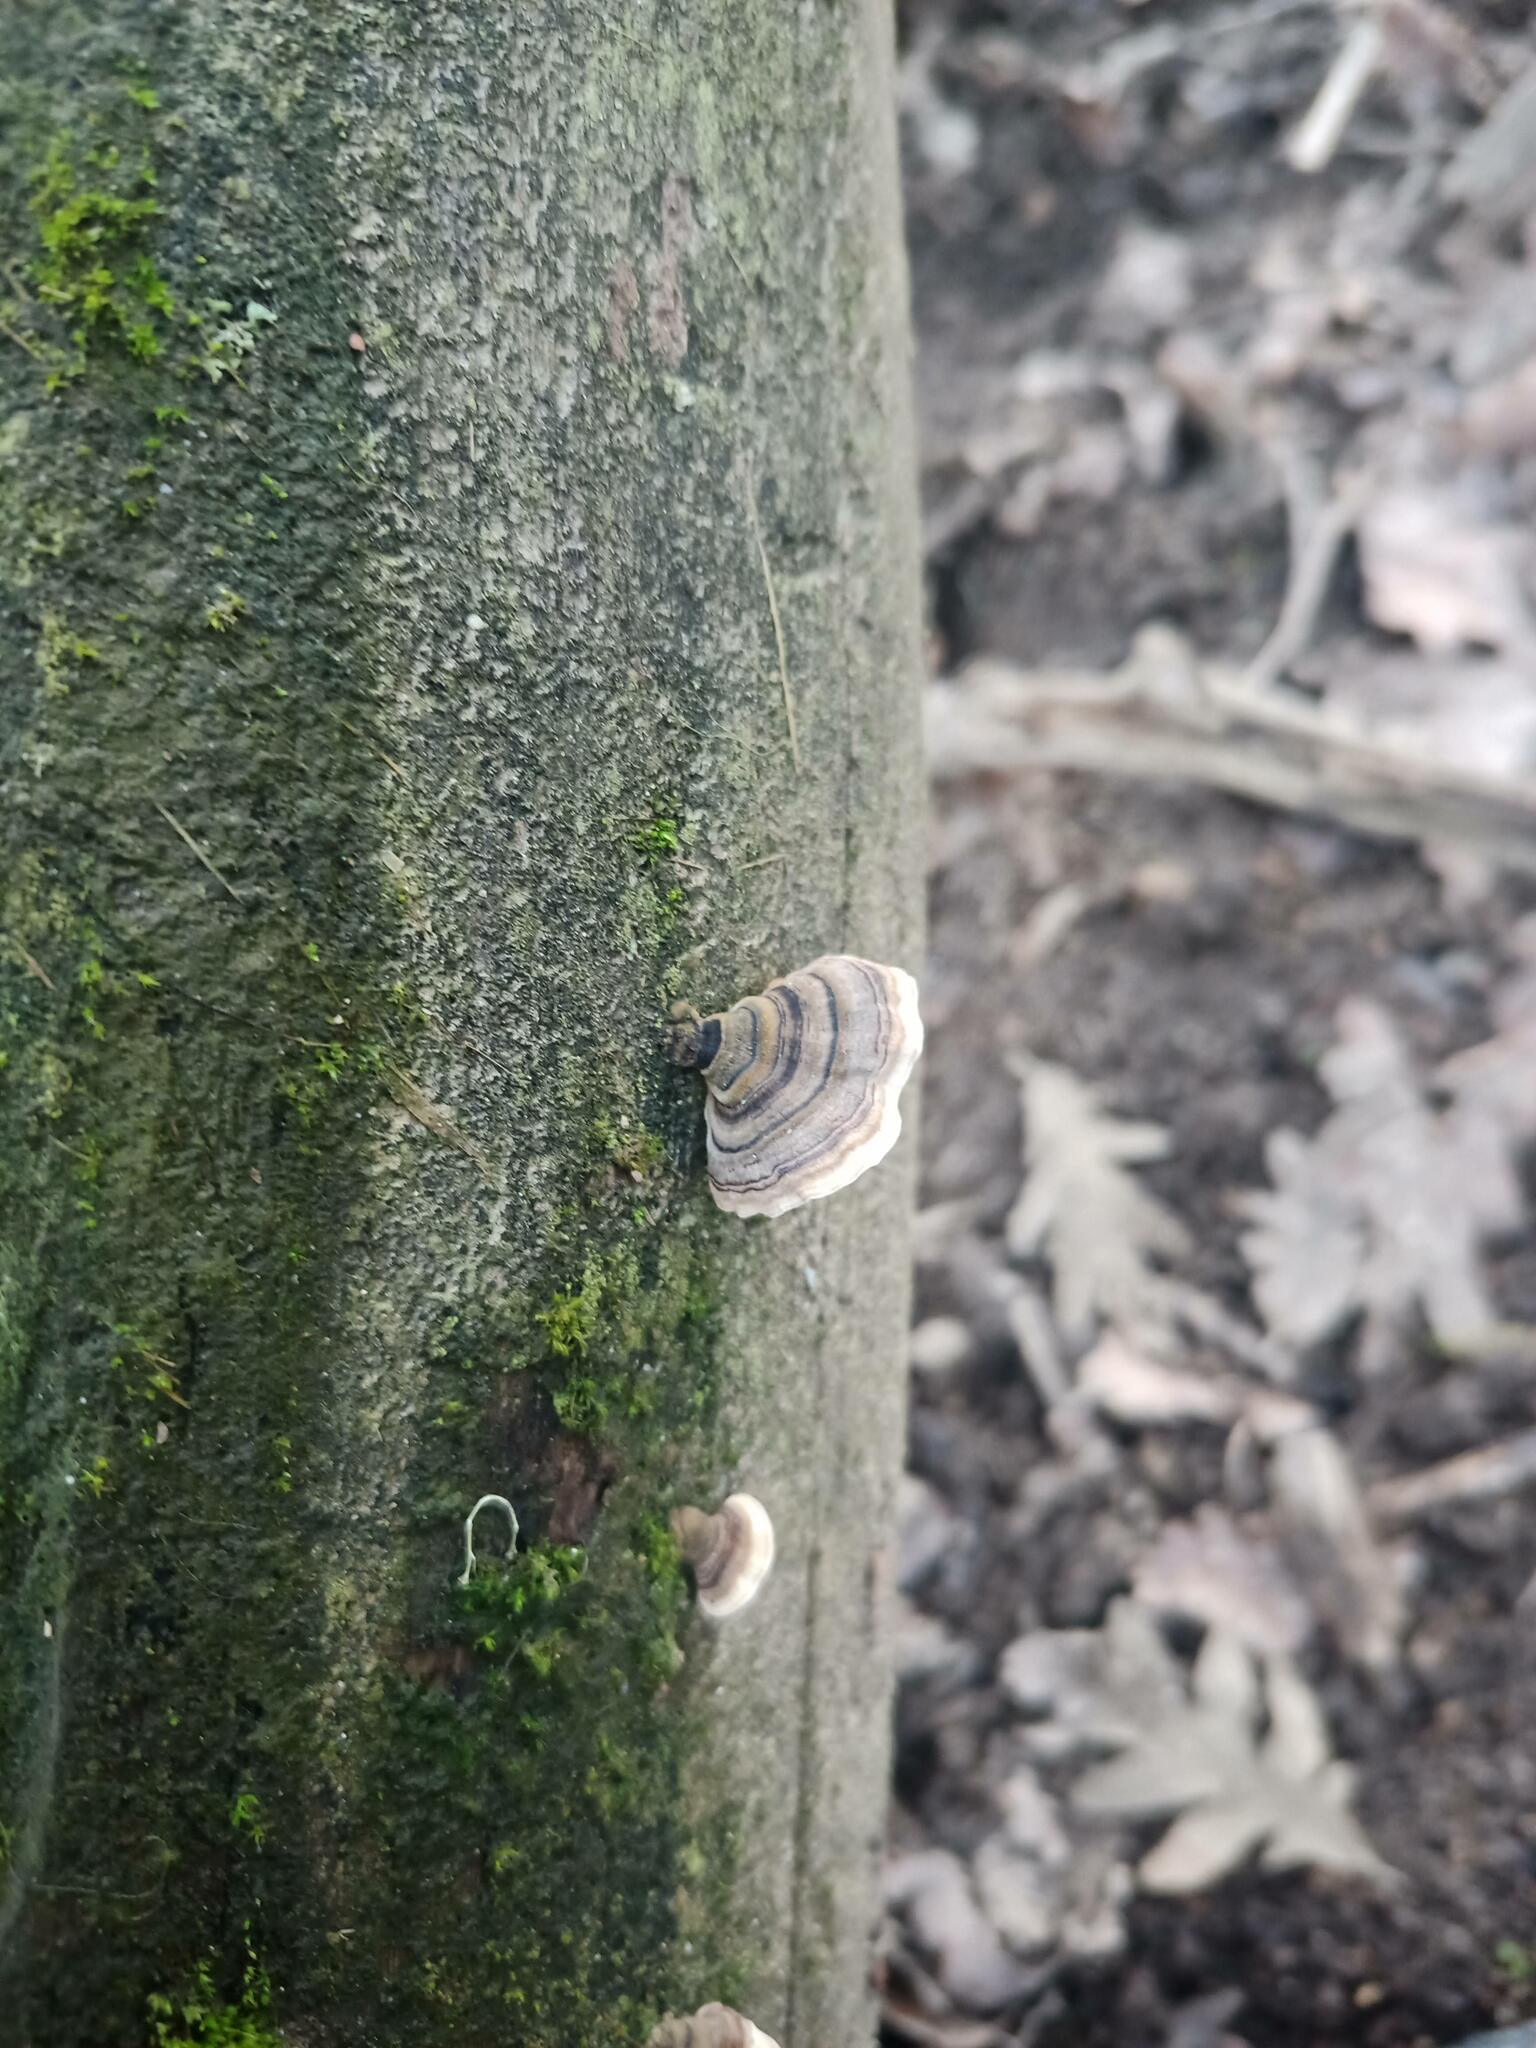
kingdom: Fungi
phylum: Basidiomycota
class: Agaricomycetes
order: Polyporales
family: Polyporaceae
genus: Trametes
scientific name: Trametes versicolor
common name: Turkeytail
